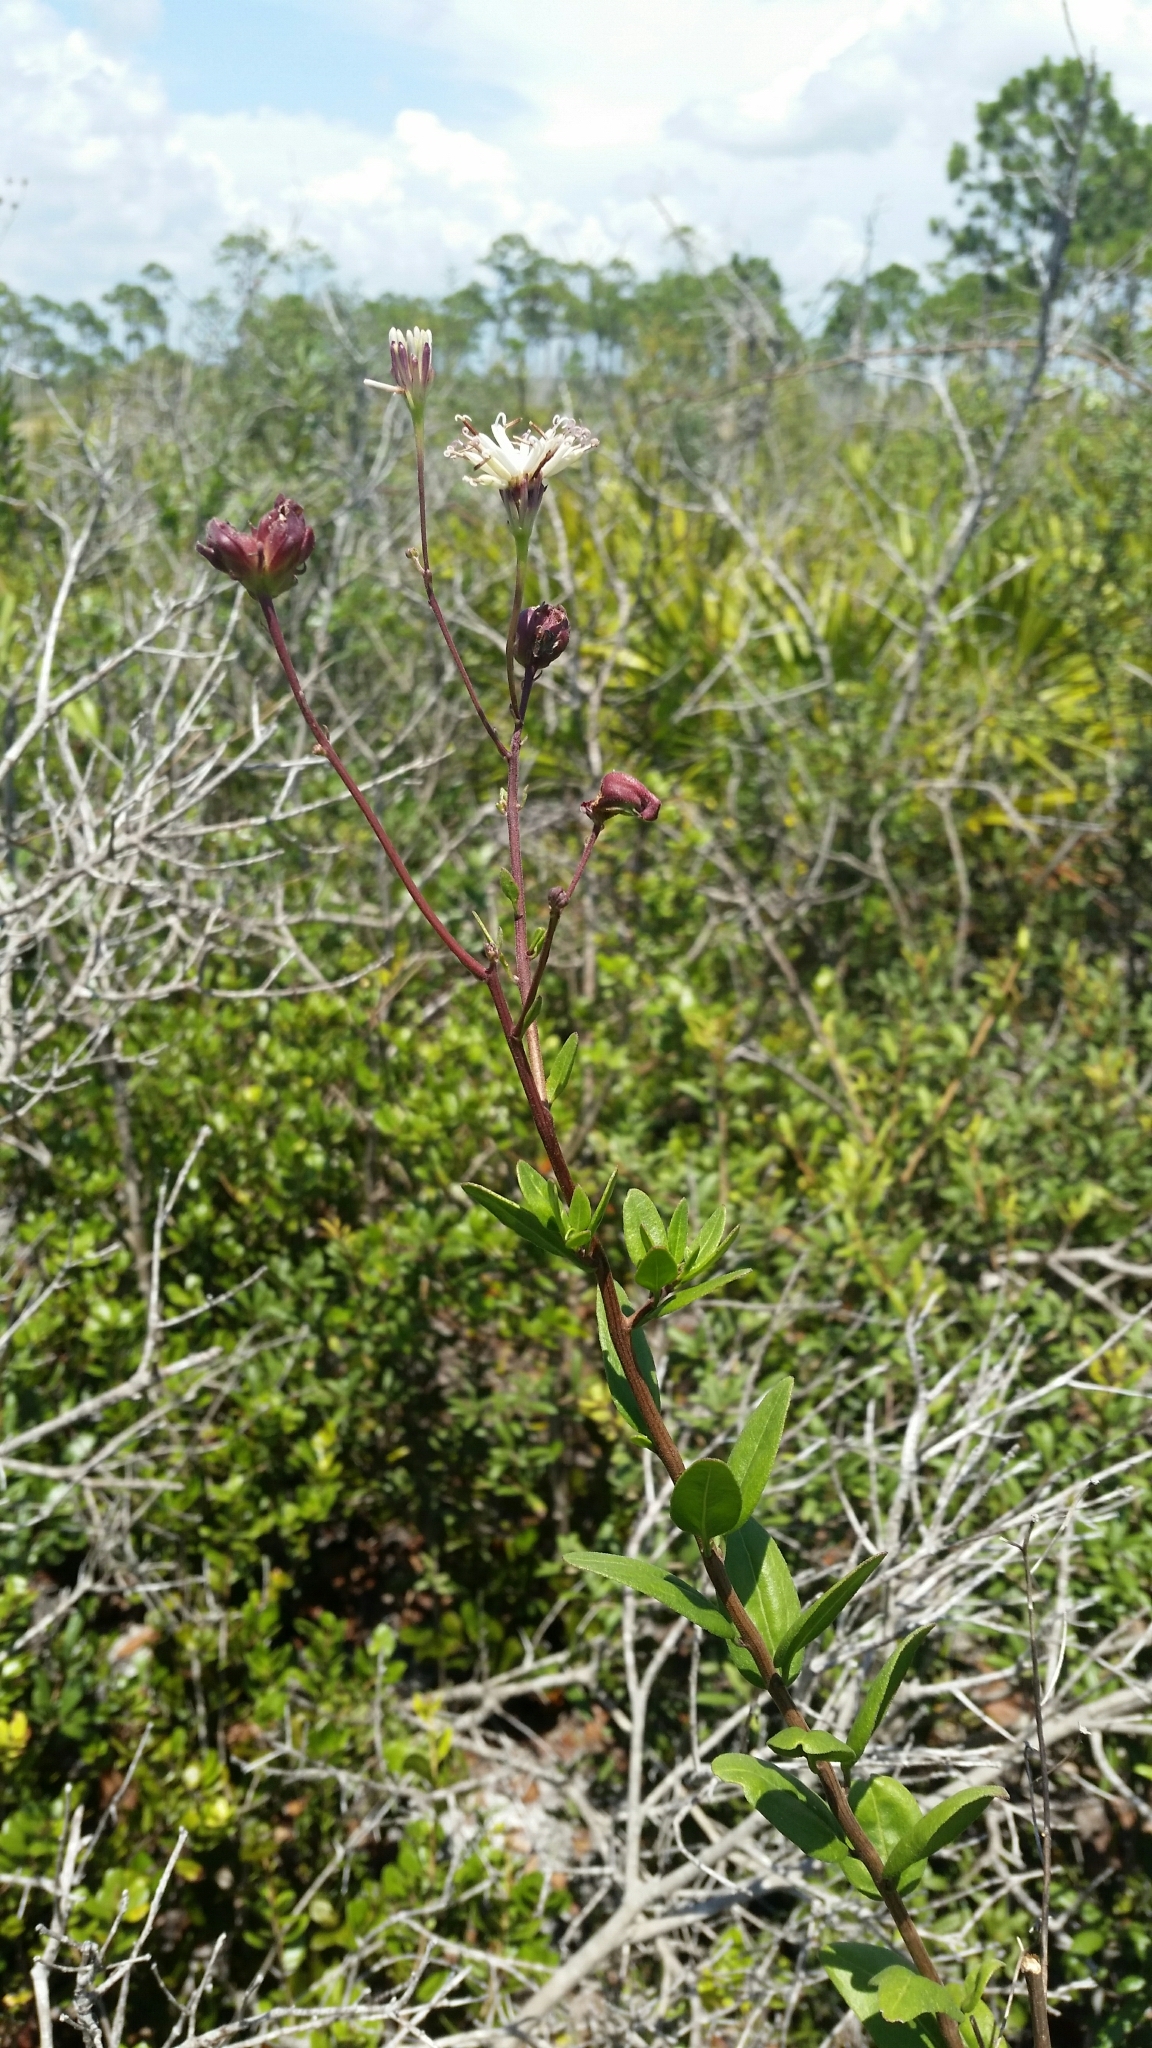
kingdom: Plantae
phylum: Tracheophyta
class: Magnoliopsida
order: Asterales
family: Asteraceae
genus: Palafoxia
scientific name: Palafoxia feayi
